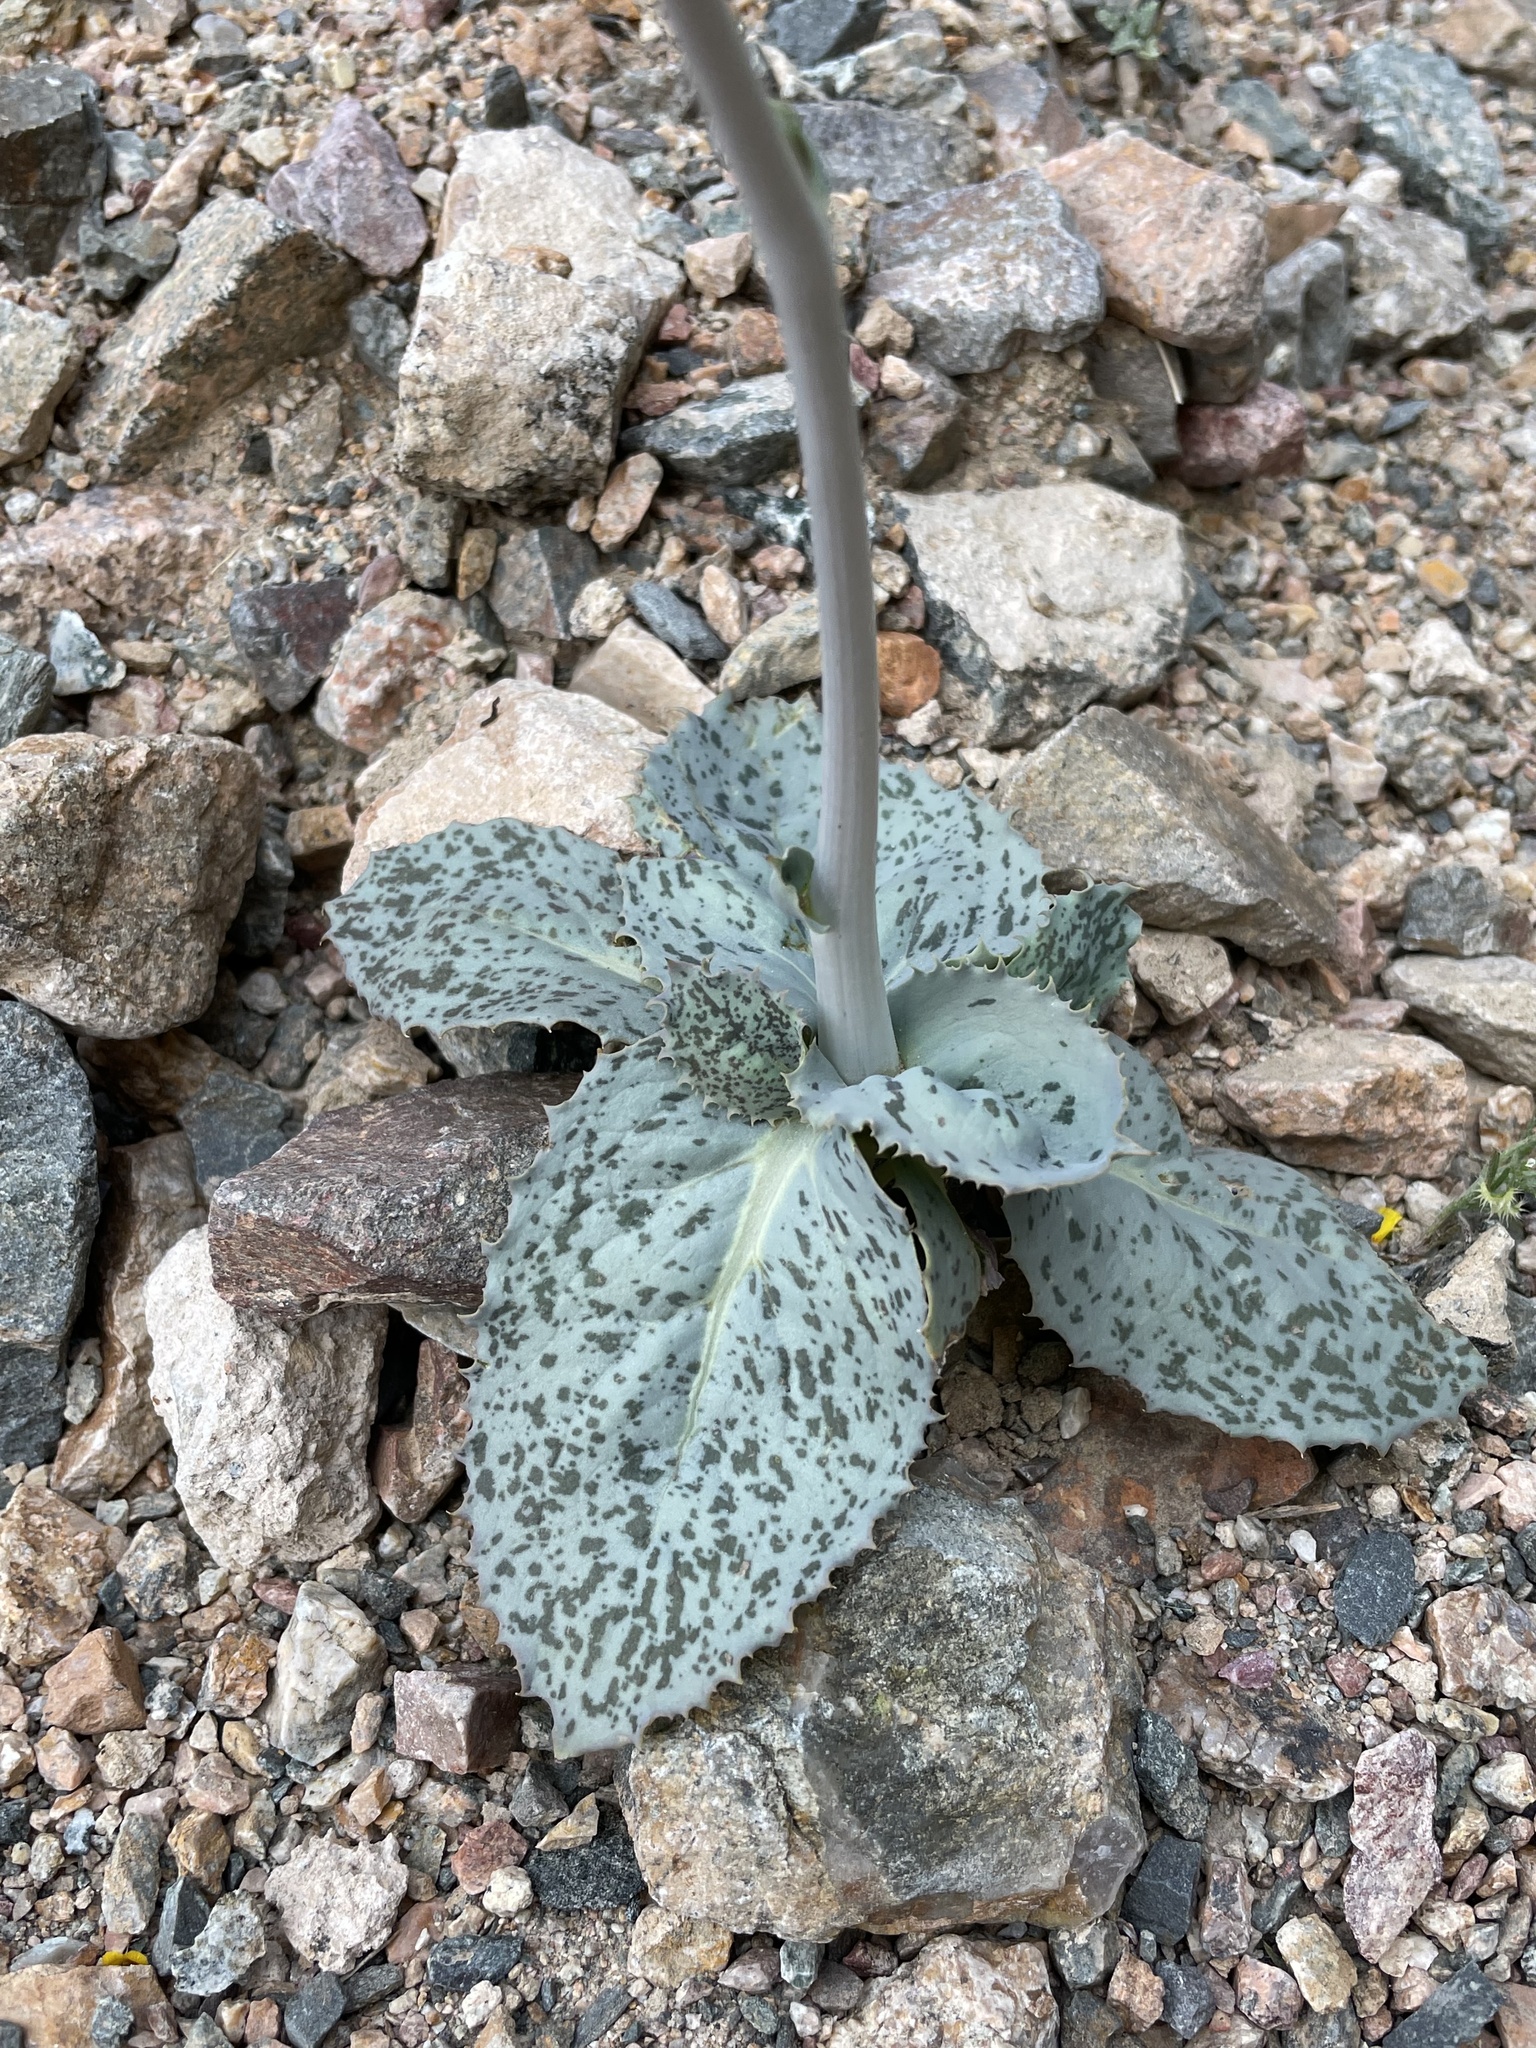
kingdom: Plantae
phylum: Tracheophyta
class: Magnoliopsida
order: Asterales
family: Asteraceae
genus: Atrichoseris
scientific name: Atrichoseris platyphylla
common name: Tobaccoweed
